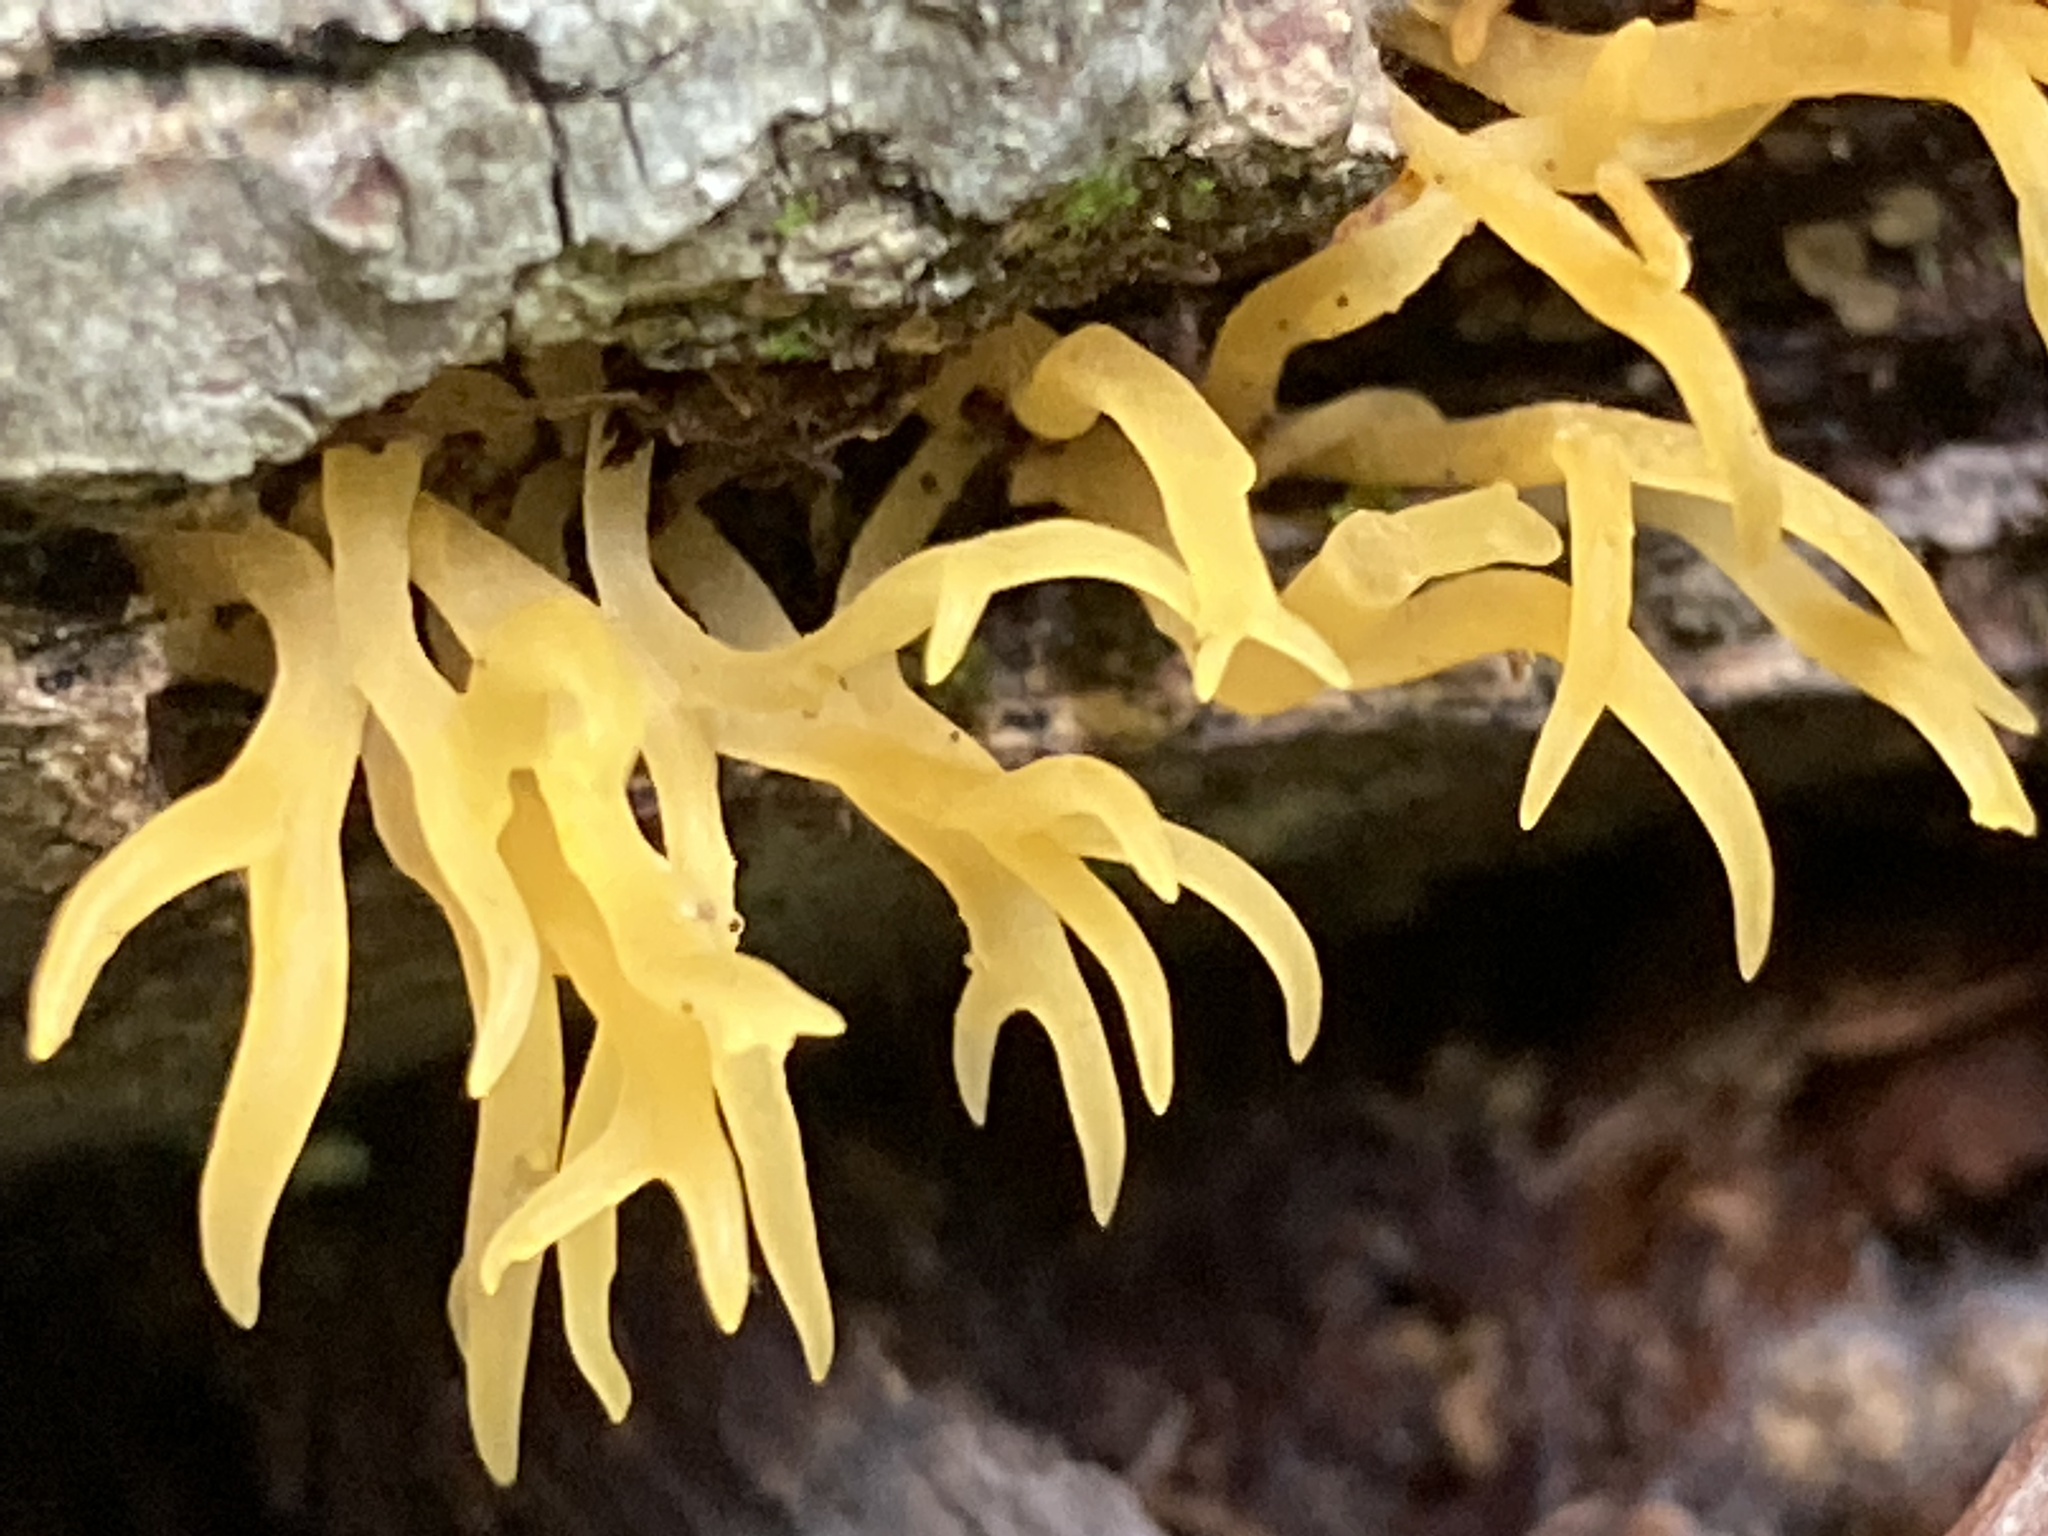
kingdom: Fungi
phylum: Basidiomycota
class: Dacrymycetes
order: Dacrymycetales
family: Dacrymycetaceae
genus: Calocera
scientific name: Calocera cornea
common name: Small stagshorn
